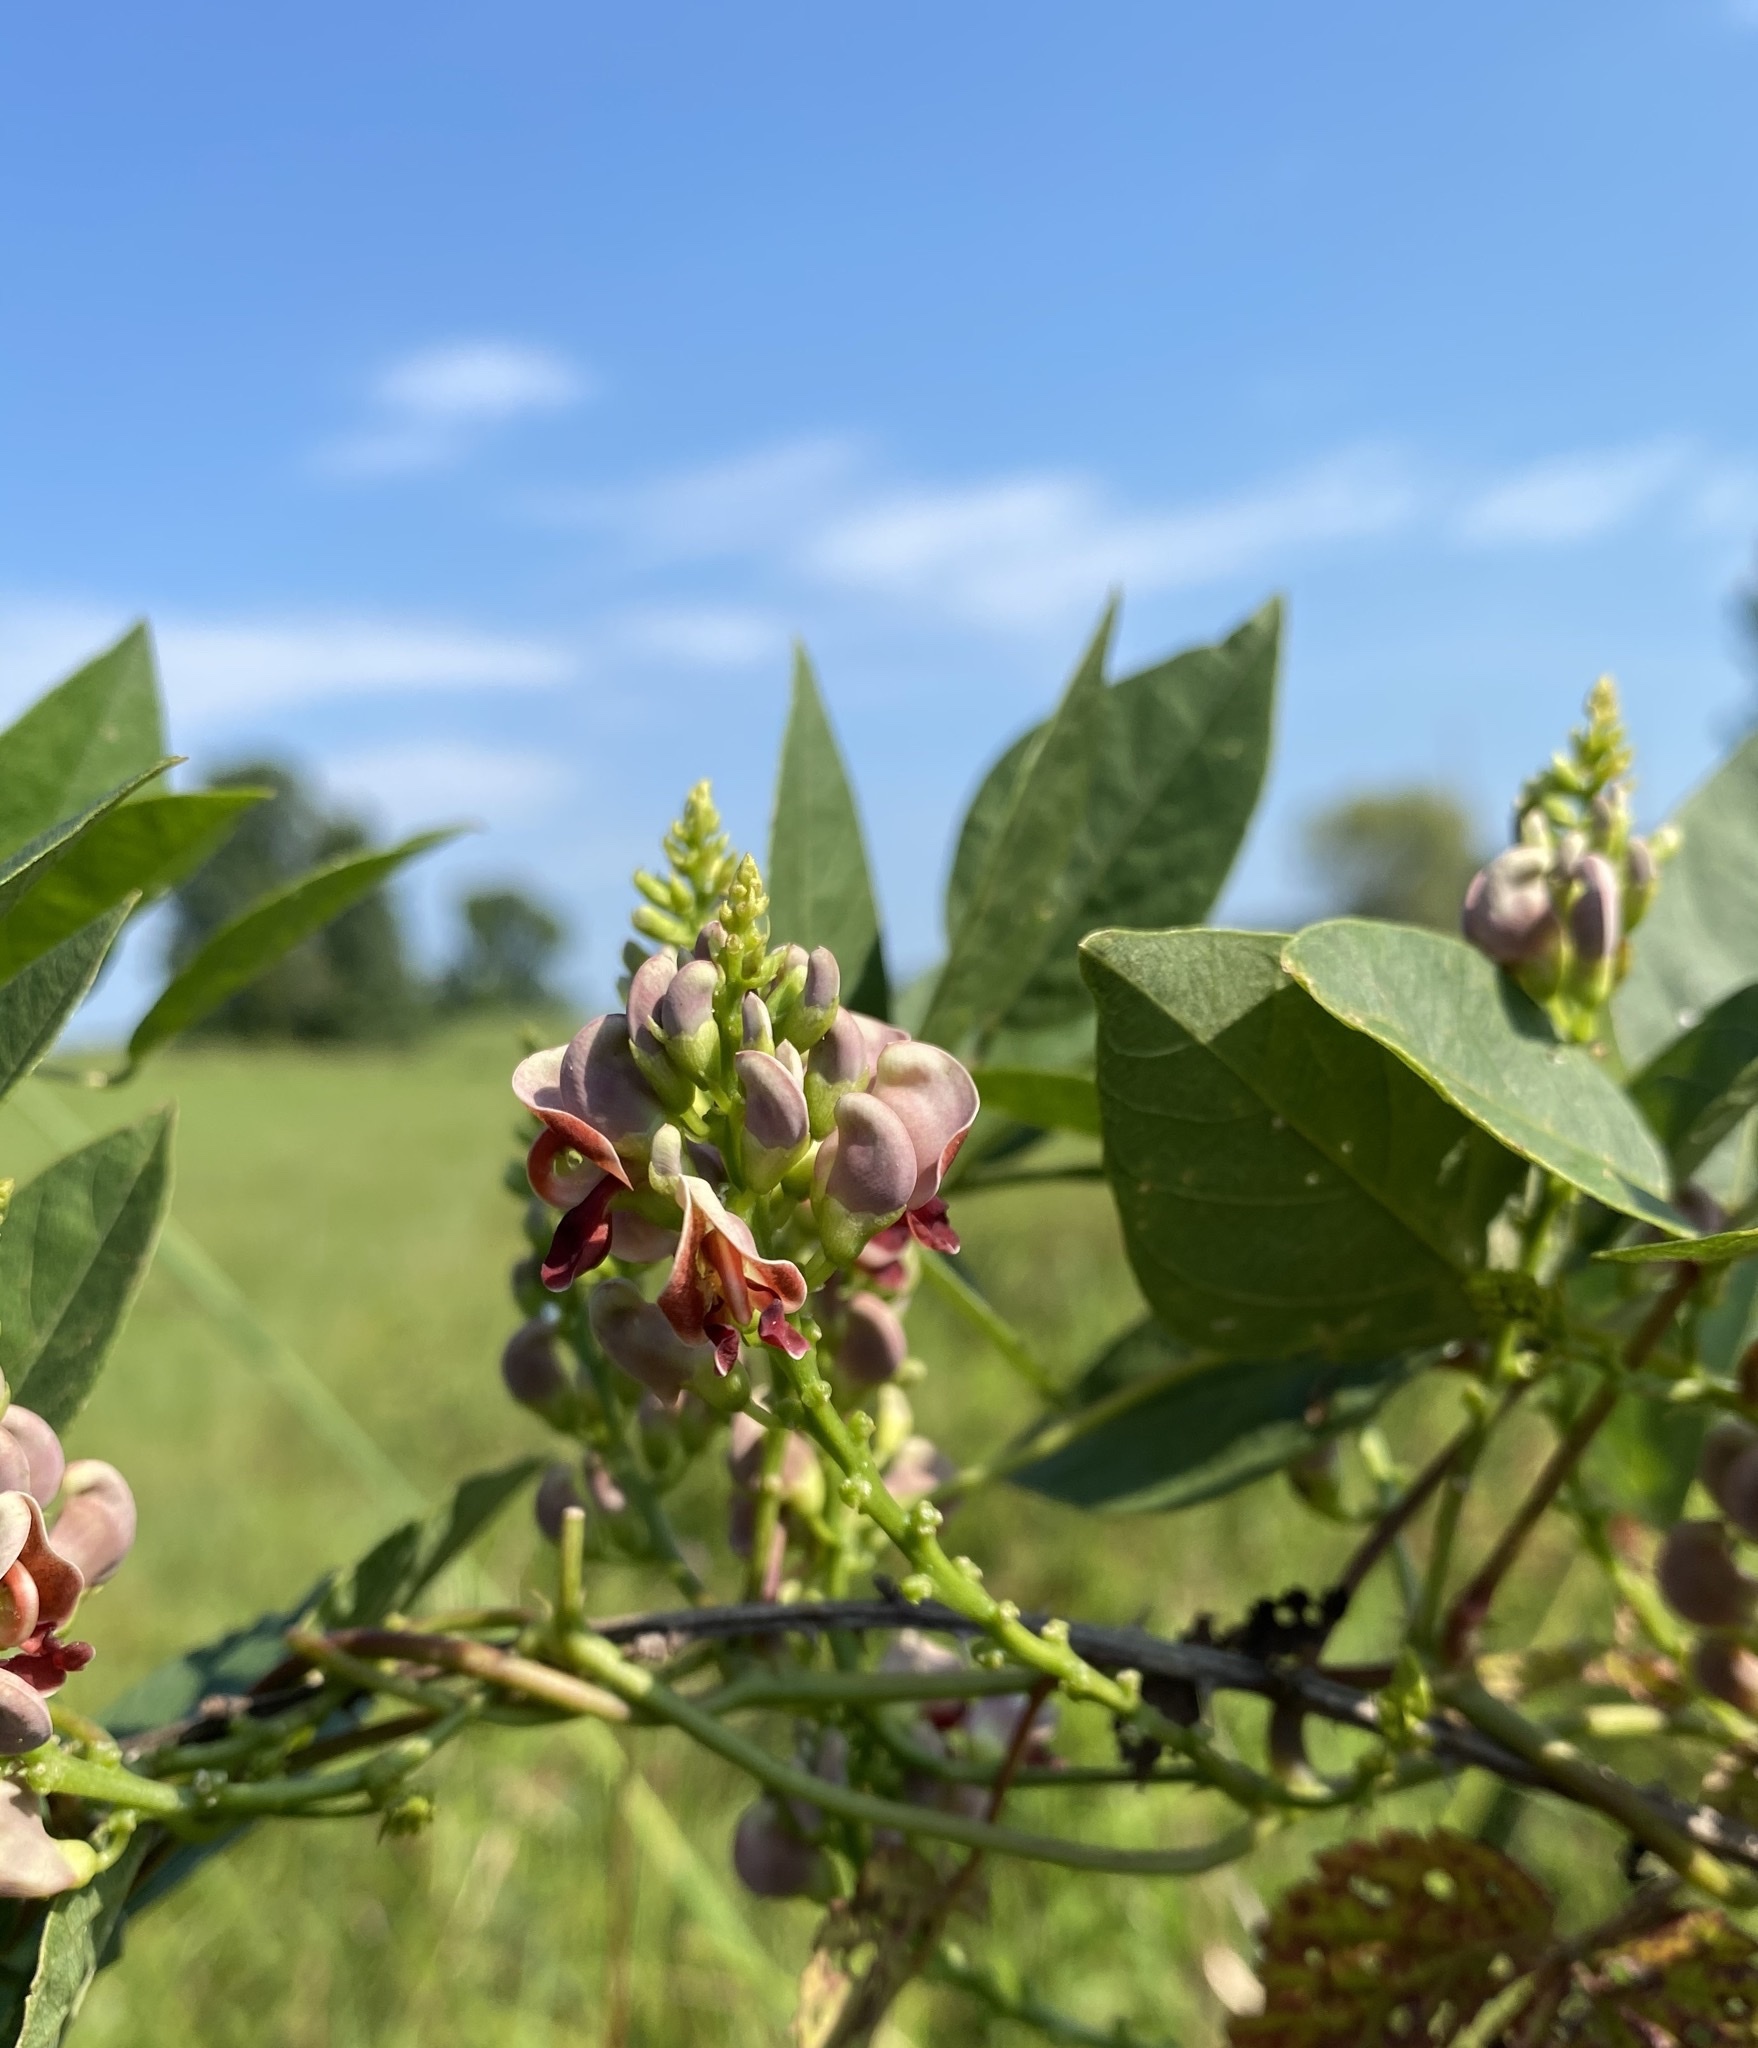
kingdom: Plantae
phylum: Tracheophyta
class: Magnoliopsida
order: Fabales
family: Fabaceae
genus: Apios
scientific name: Apios americana
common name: American potato-bean
